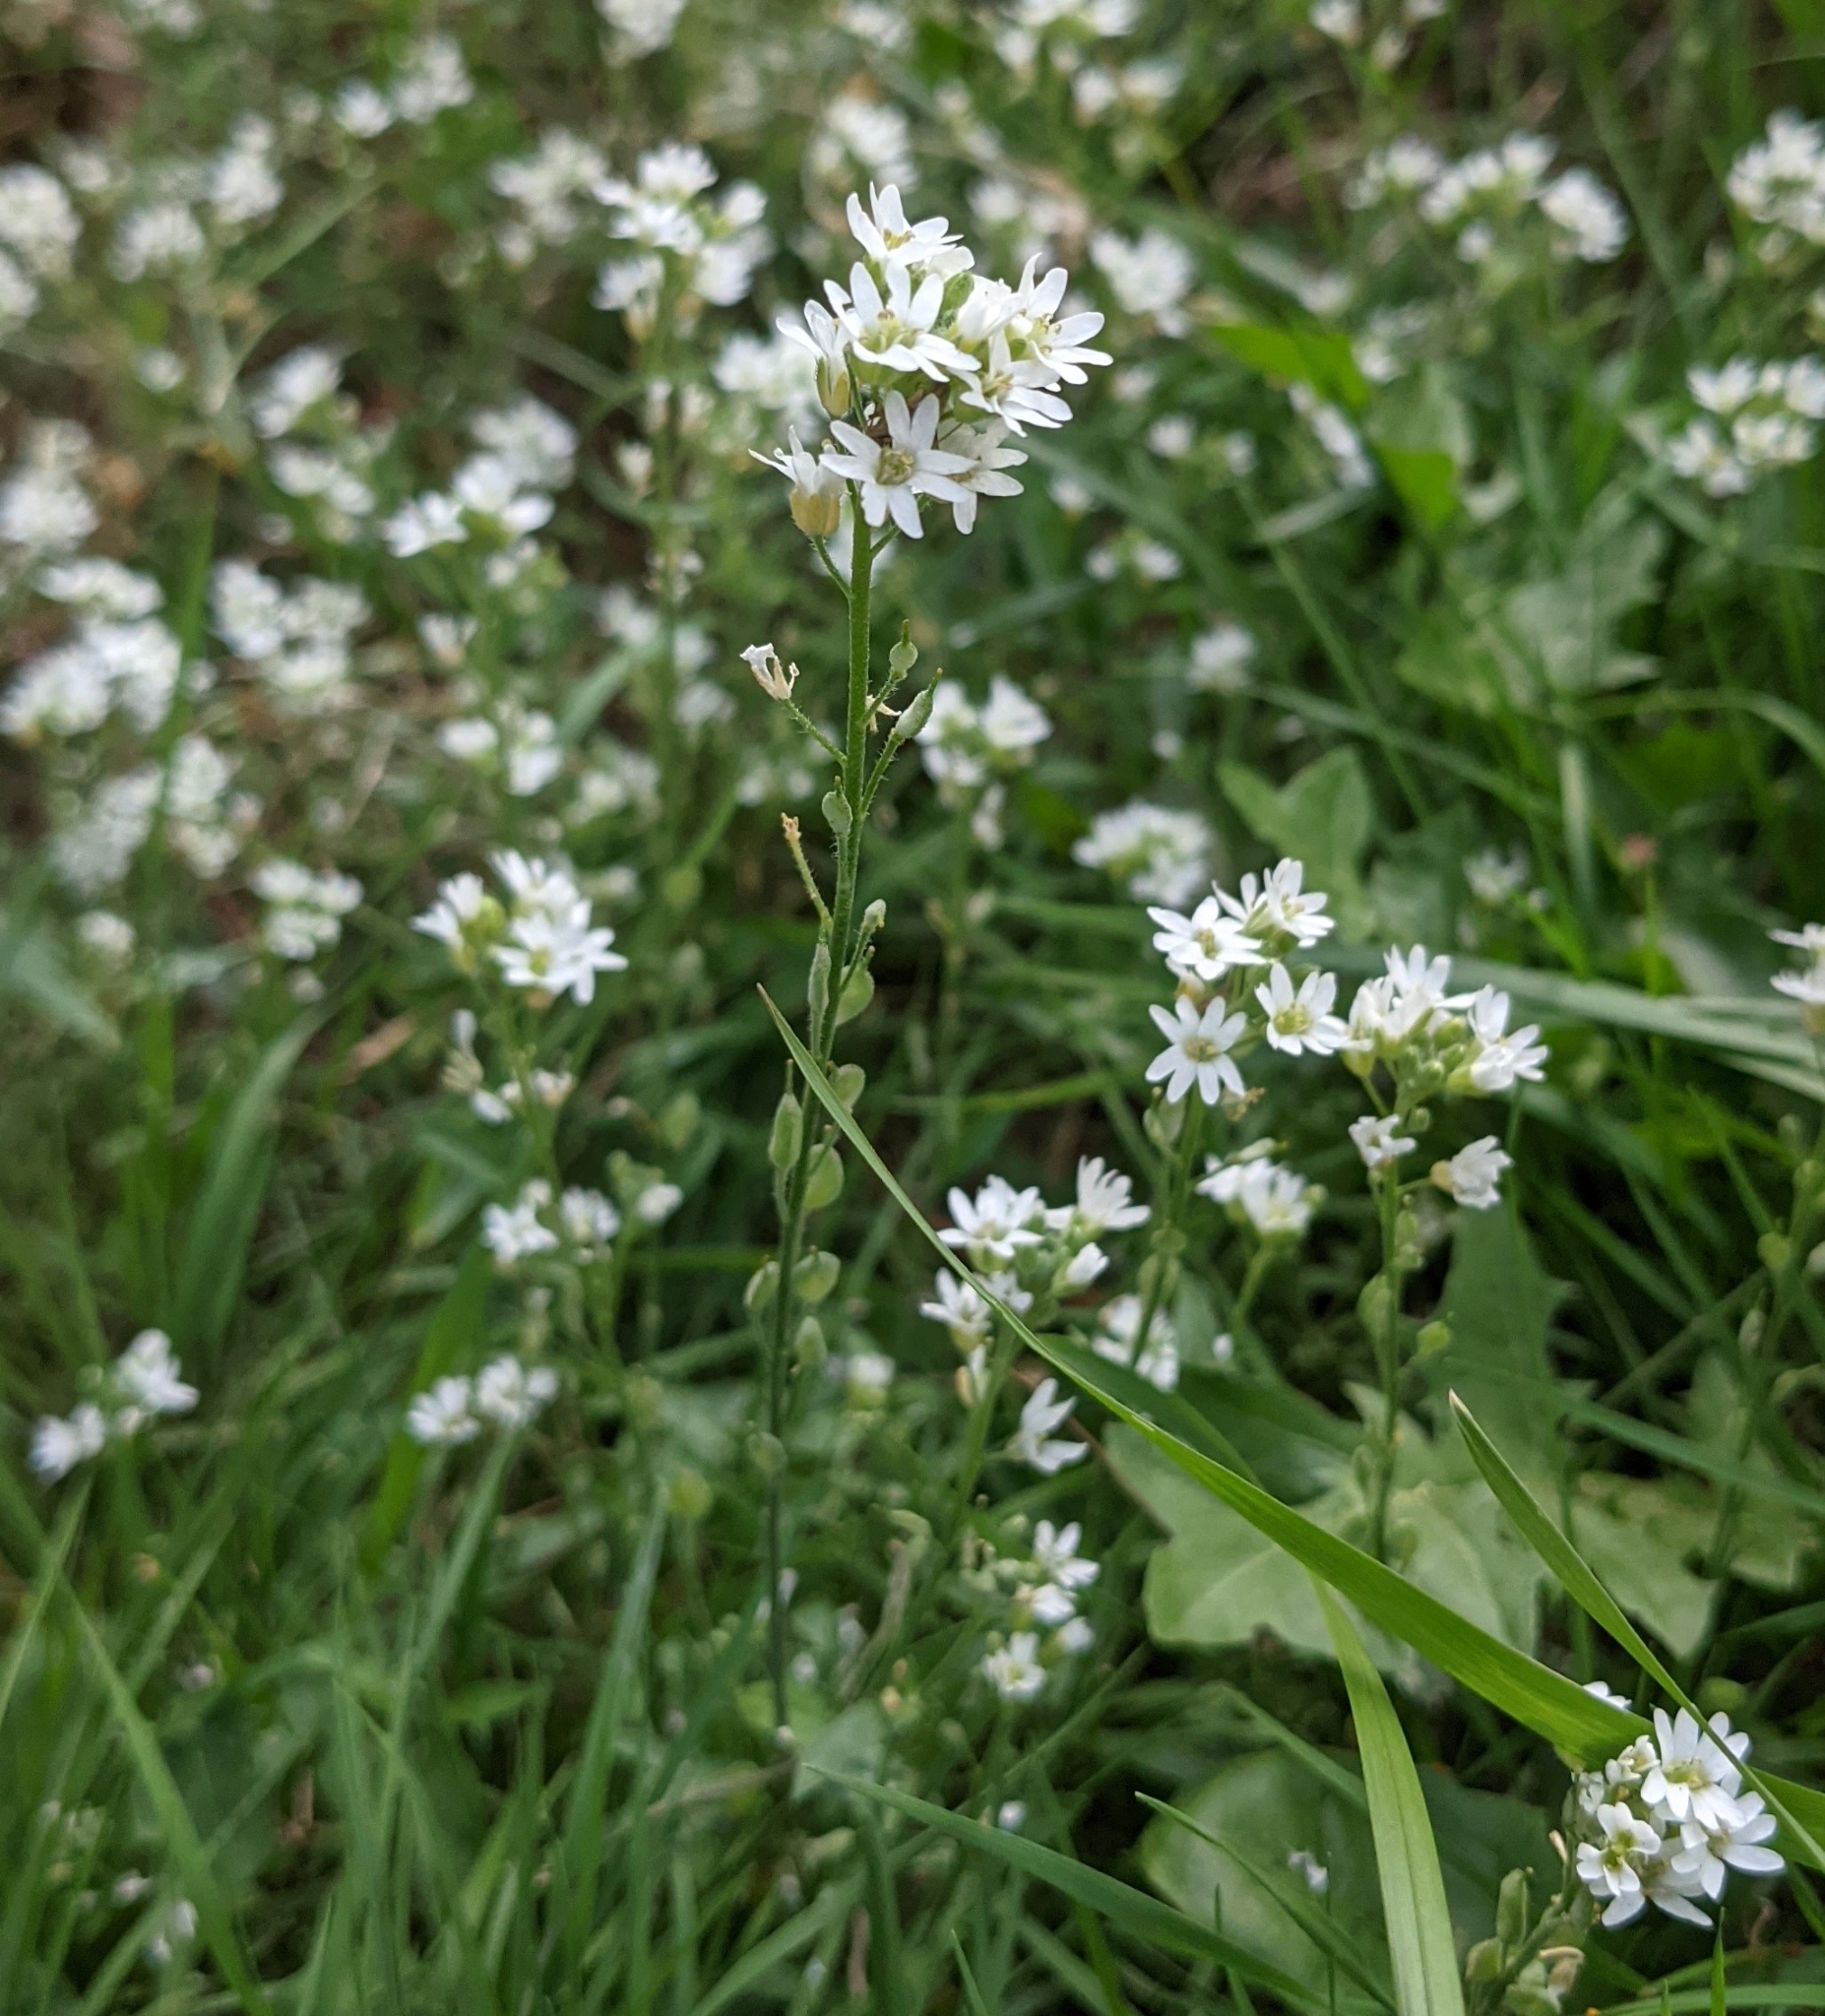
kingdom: Plantae
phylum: Tracheophyta
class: Magnoliopsida
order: Brassicales
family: Brassicaceae
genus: Berteroa
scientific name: Berteroa incana
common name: Hoary alison
